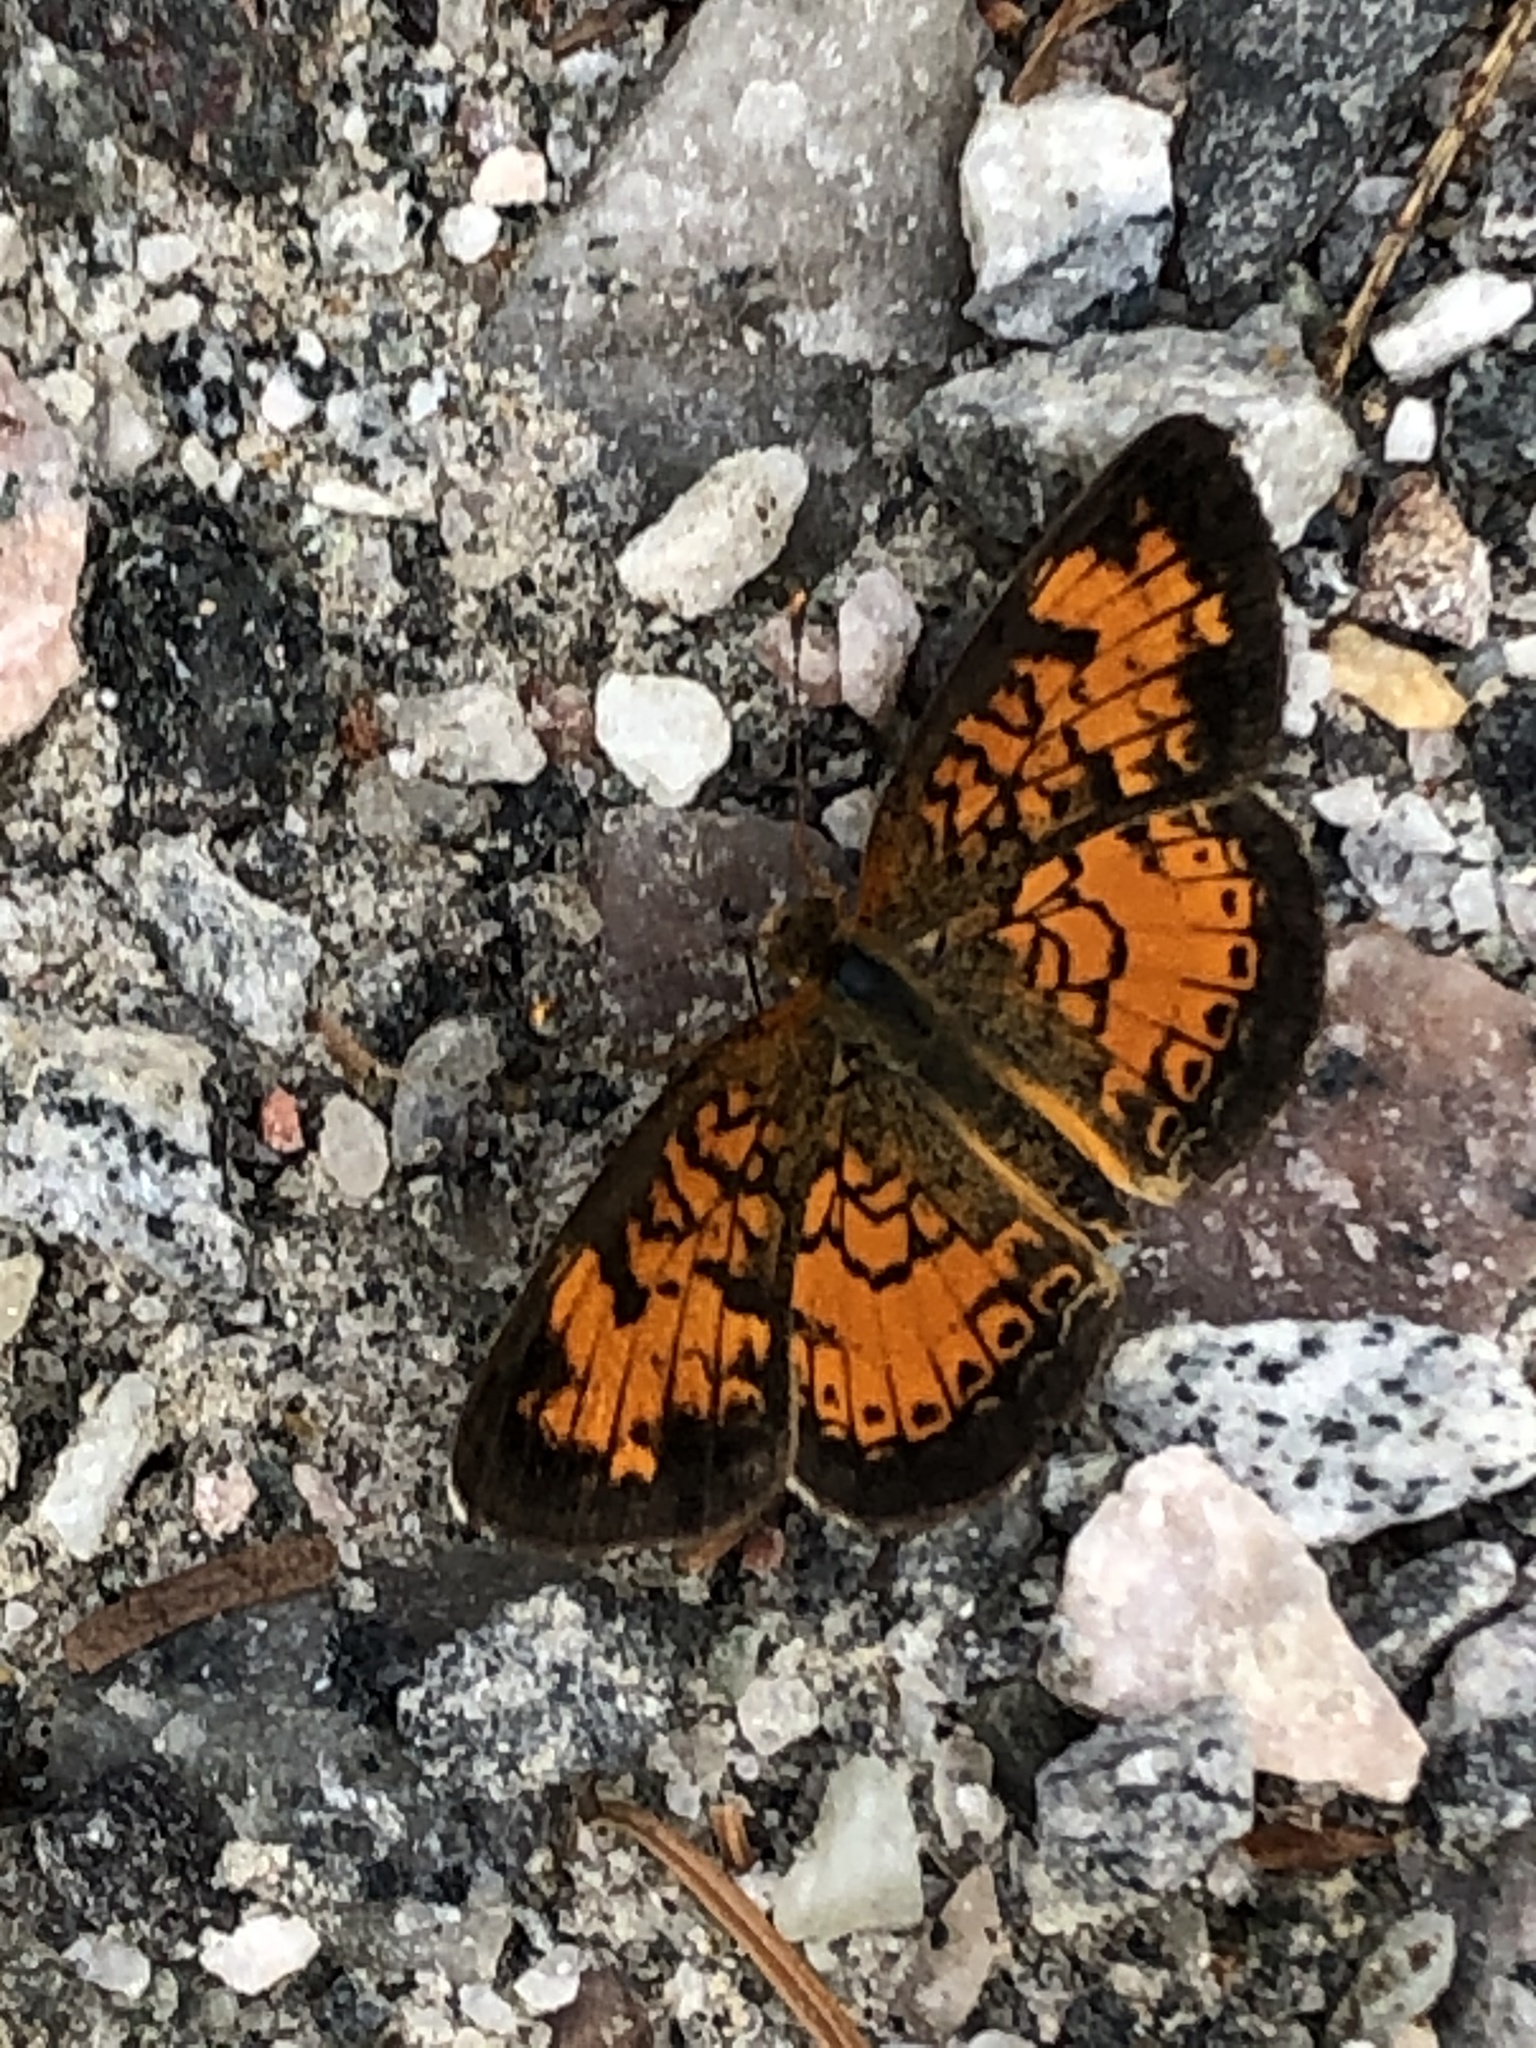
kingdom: Animalia
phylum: Arthropoda
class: Insecta
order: Lepidoptera
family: Nymphalidae
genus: Phyciodes
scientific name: Phyciodes tharos
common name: Pearl crescent
